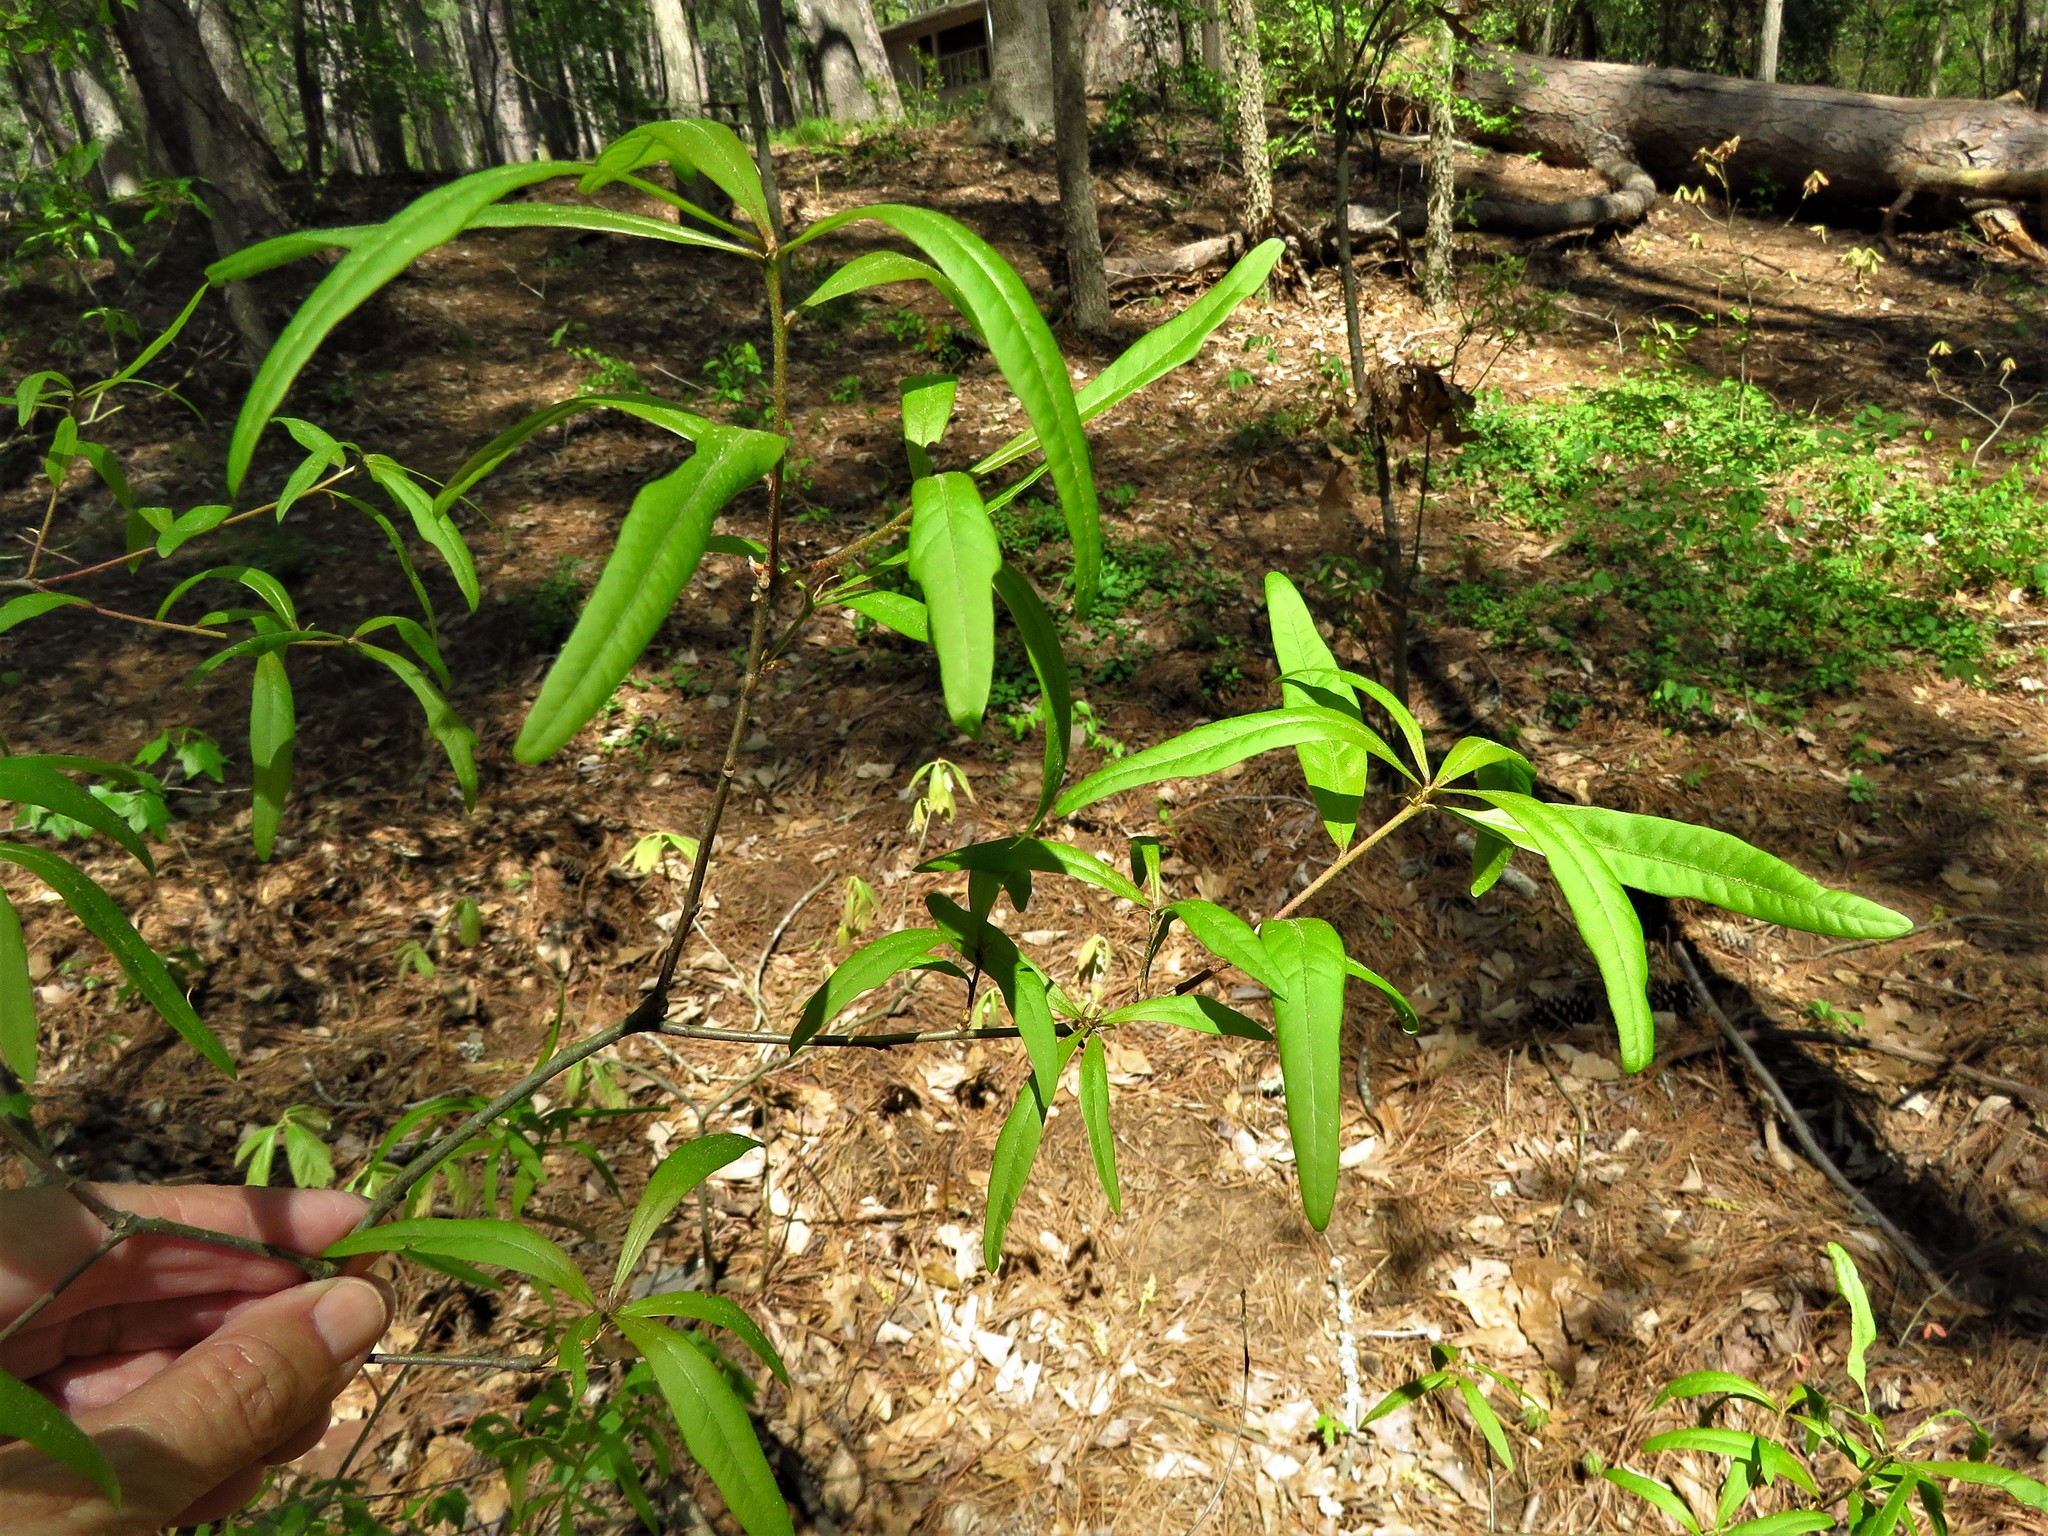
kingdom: Plantae
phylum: Tracheophyta
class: Magnoliopsida
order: Fagales
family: Fagaceae
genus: Quercus
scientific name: Quercus phellos
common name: Willow oak
